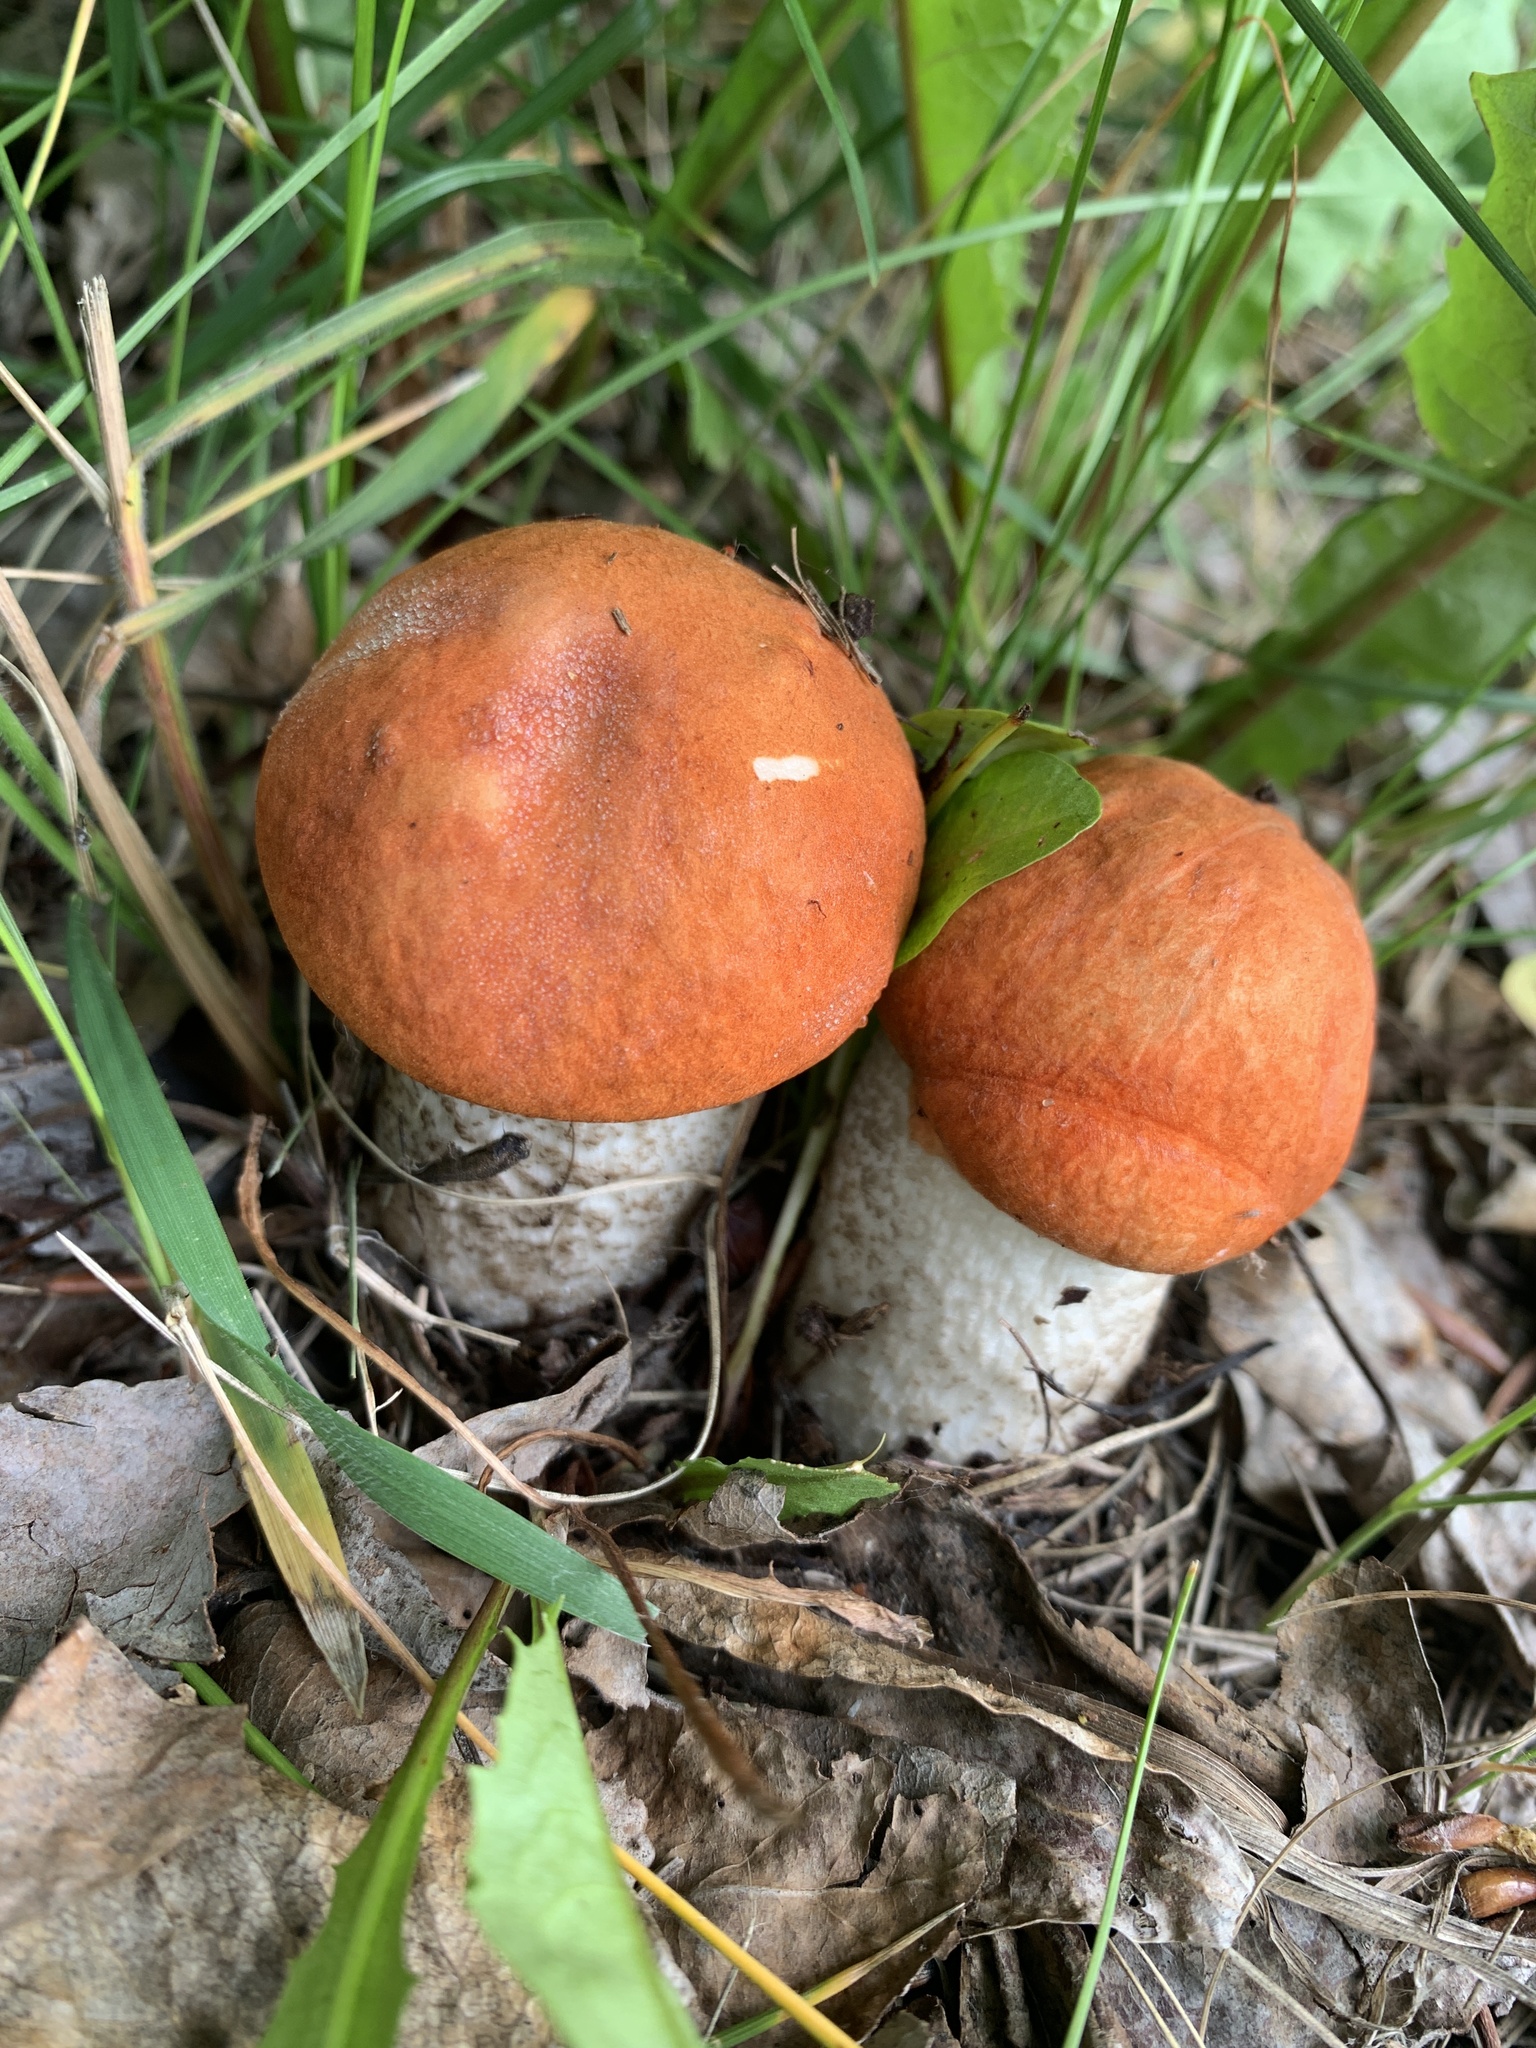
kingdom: Fungi
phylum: Basidiomycota
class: Agaricomycetes
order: Boletales
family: Boletaceae
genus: Leccinum
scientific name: Leccinum insigne
